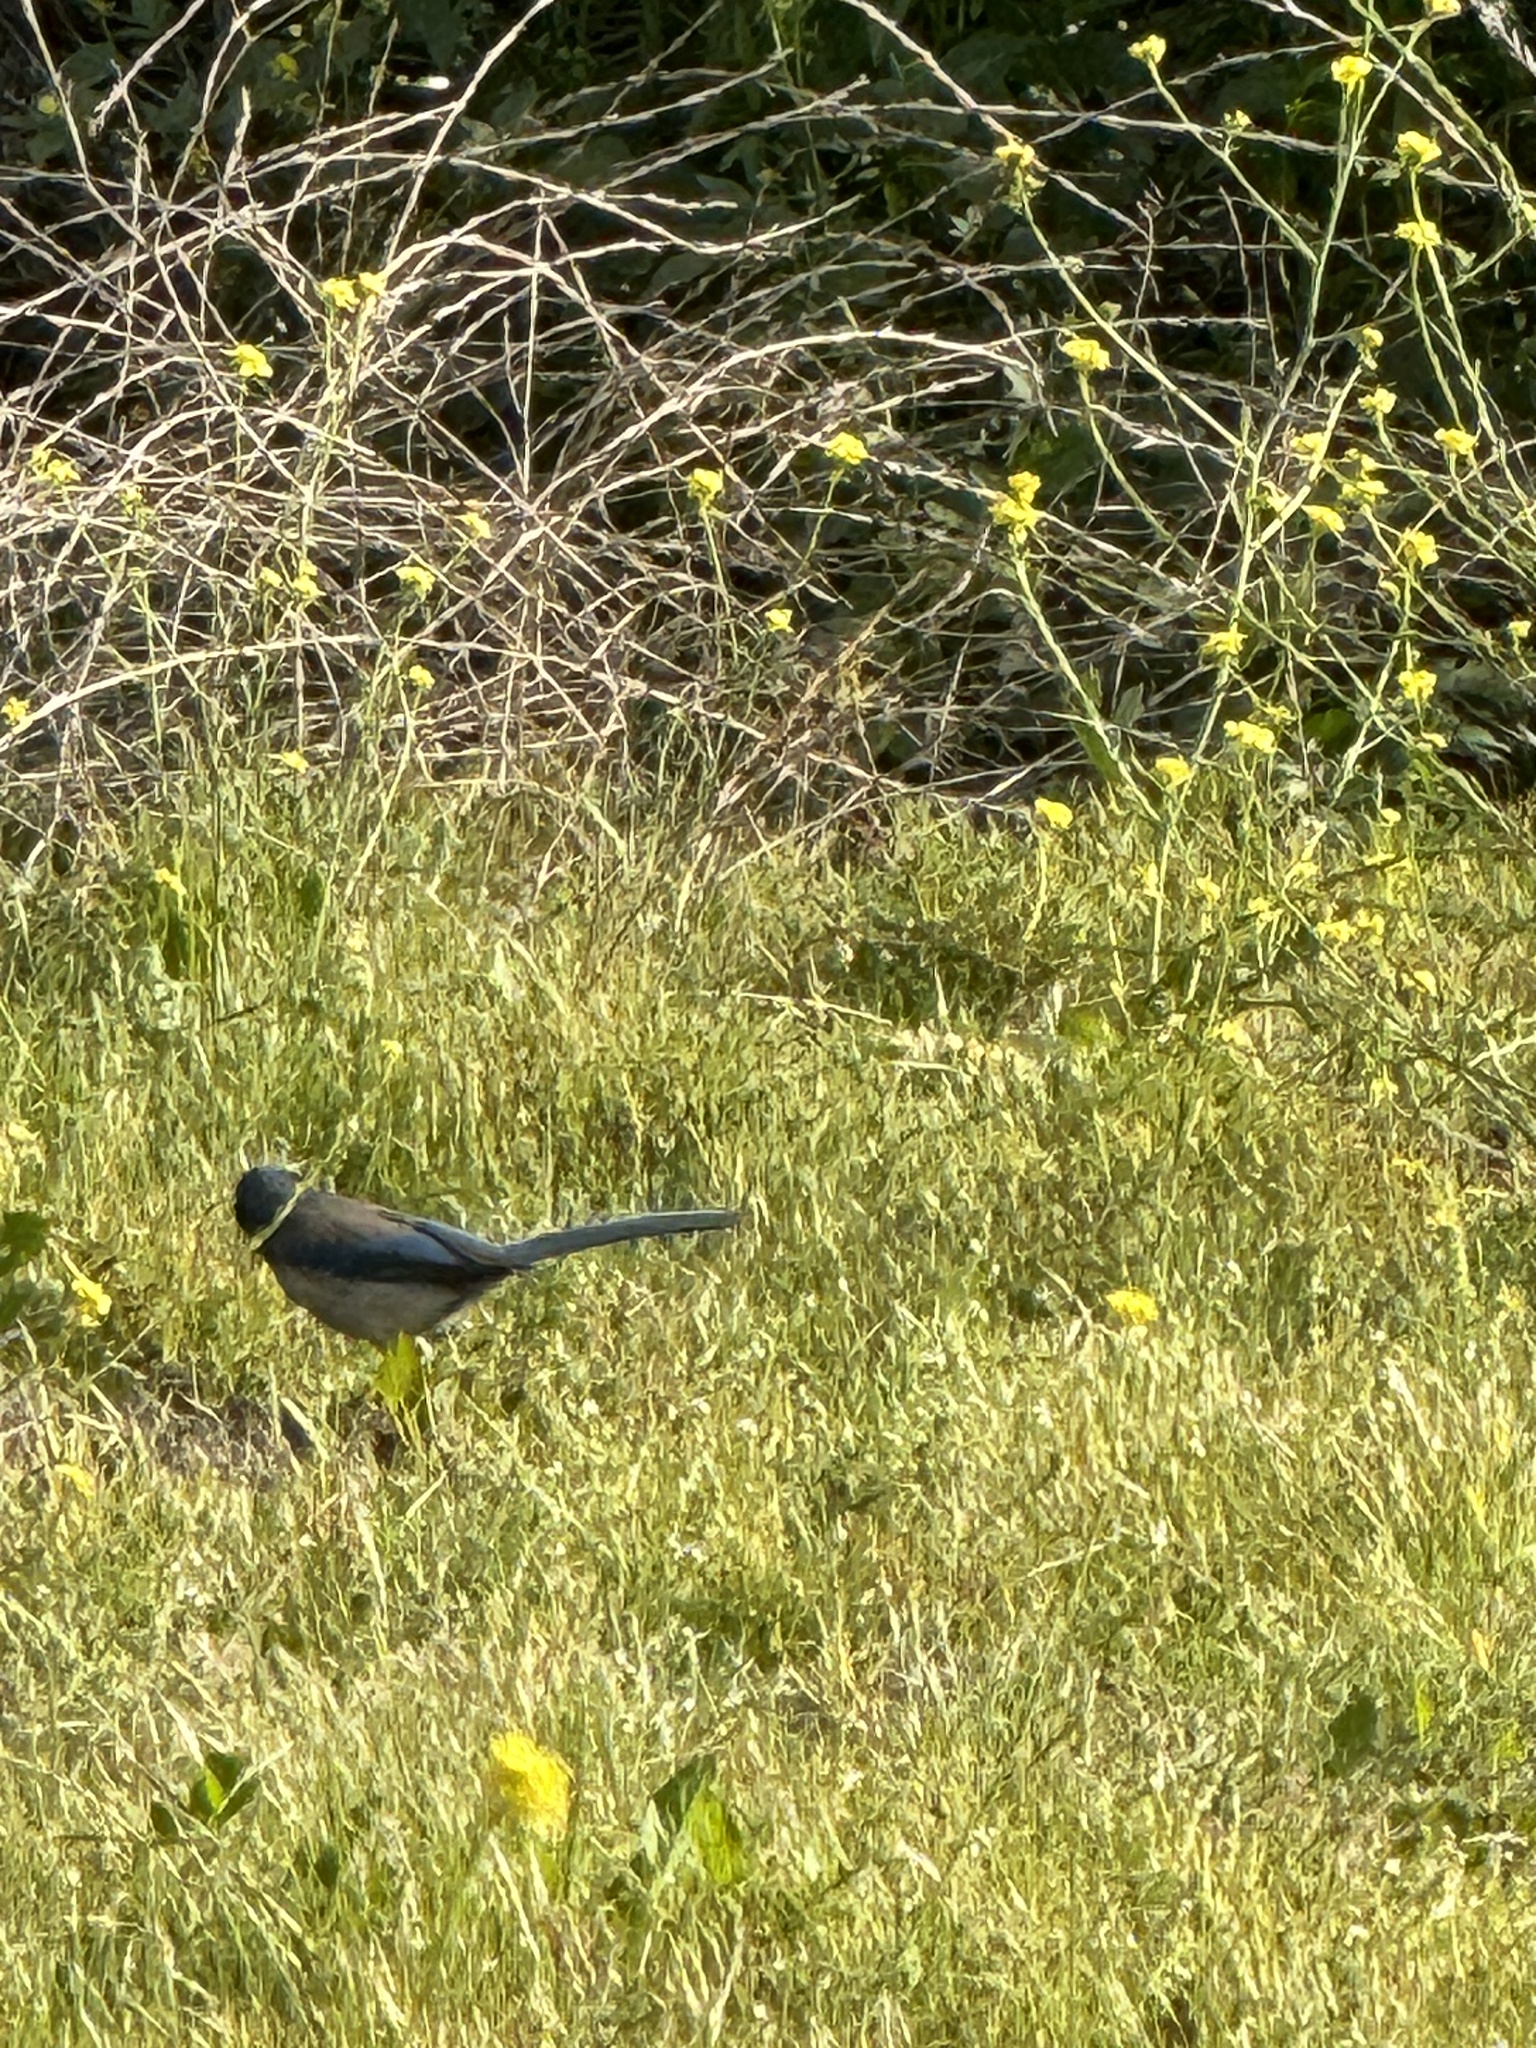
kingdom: Animalia
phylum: Chordata
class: Aves
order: Passeriformes
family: Corvidae
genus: Aphelocoma
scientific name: Aphelocoma californica
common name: California scrub-jay
